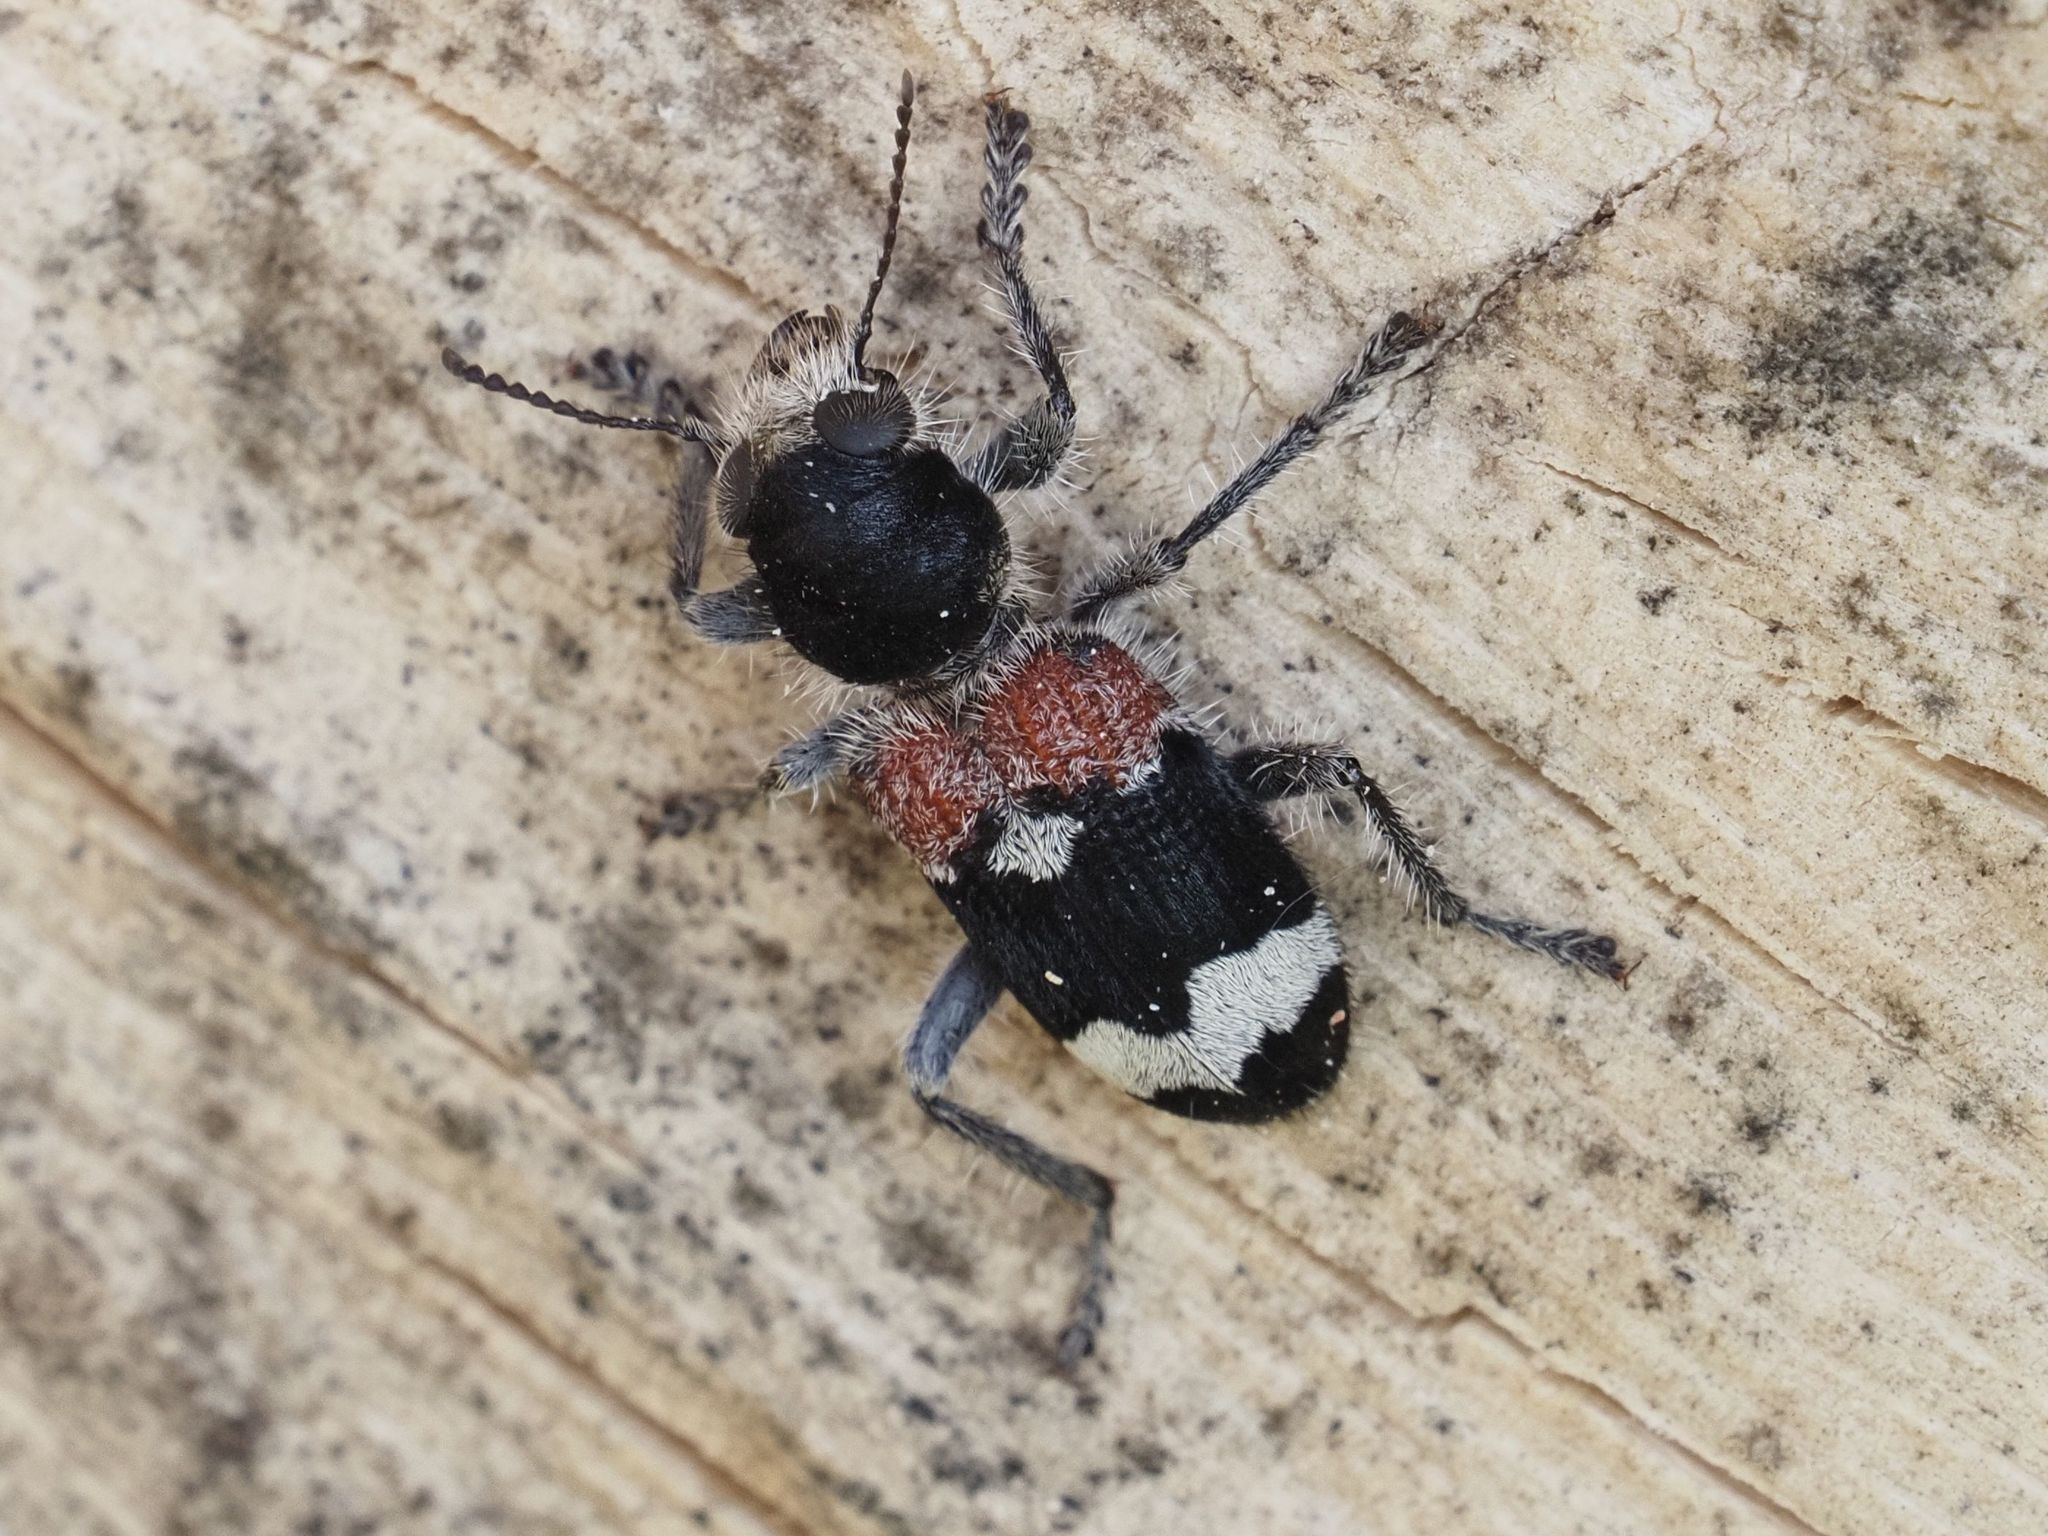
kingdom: Animalia
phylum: Arthropoda
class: Insecta
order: Coleoptera
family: Cleridae
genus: Clerus
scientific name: Clerus mutillarius
